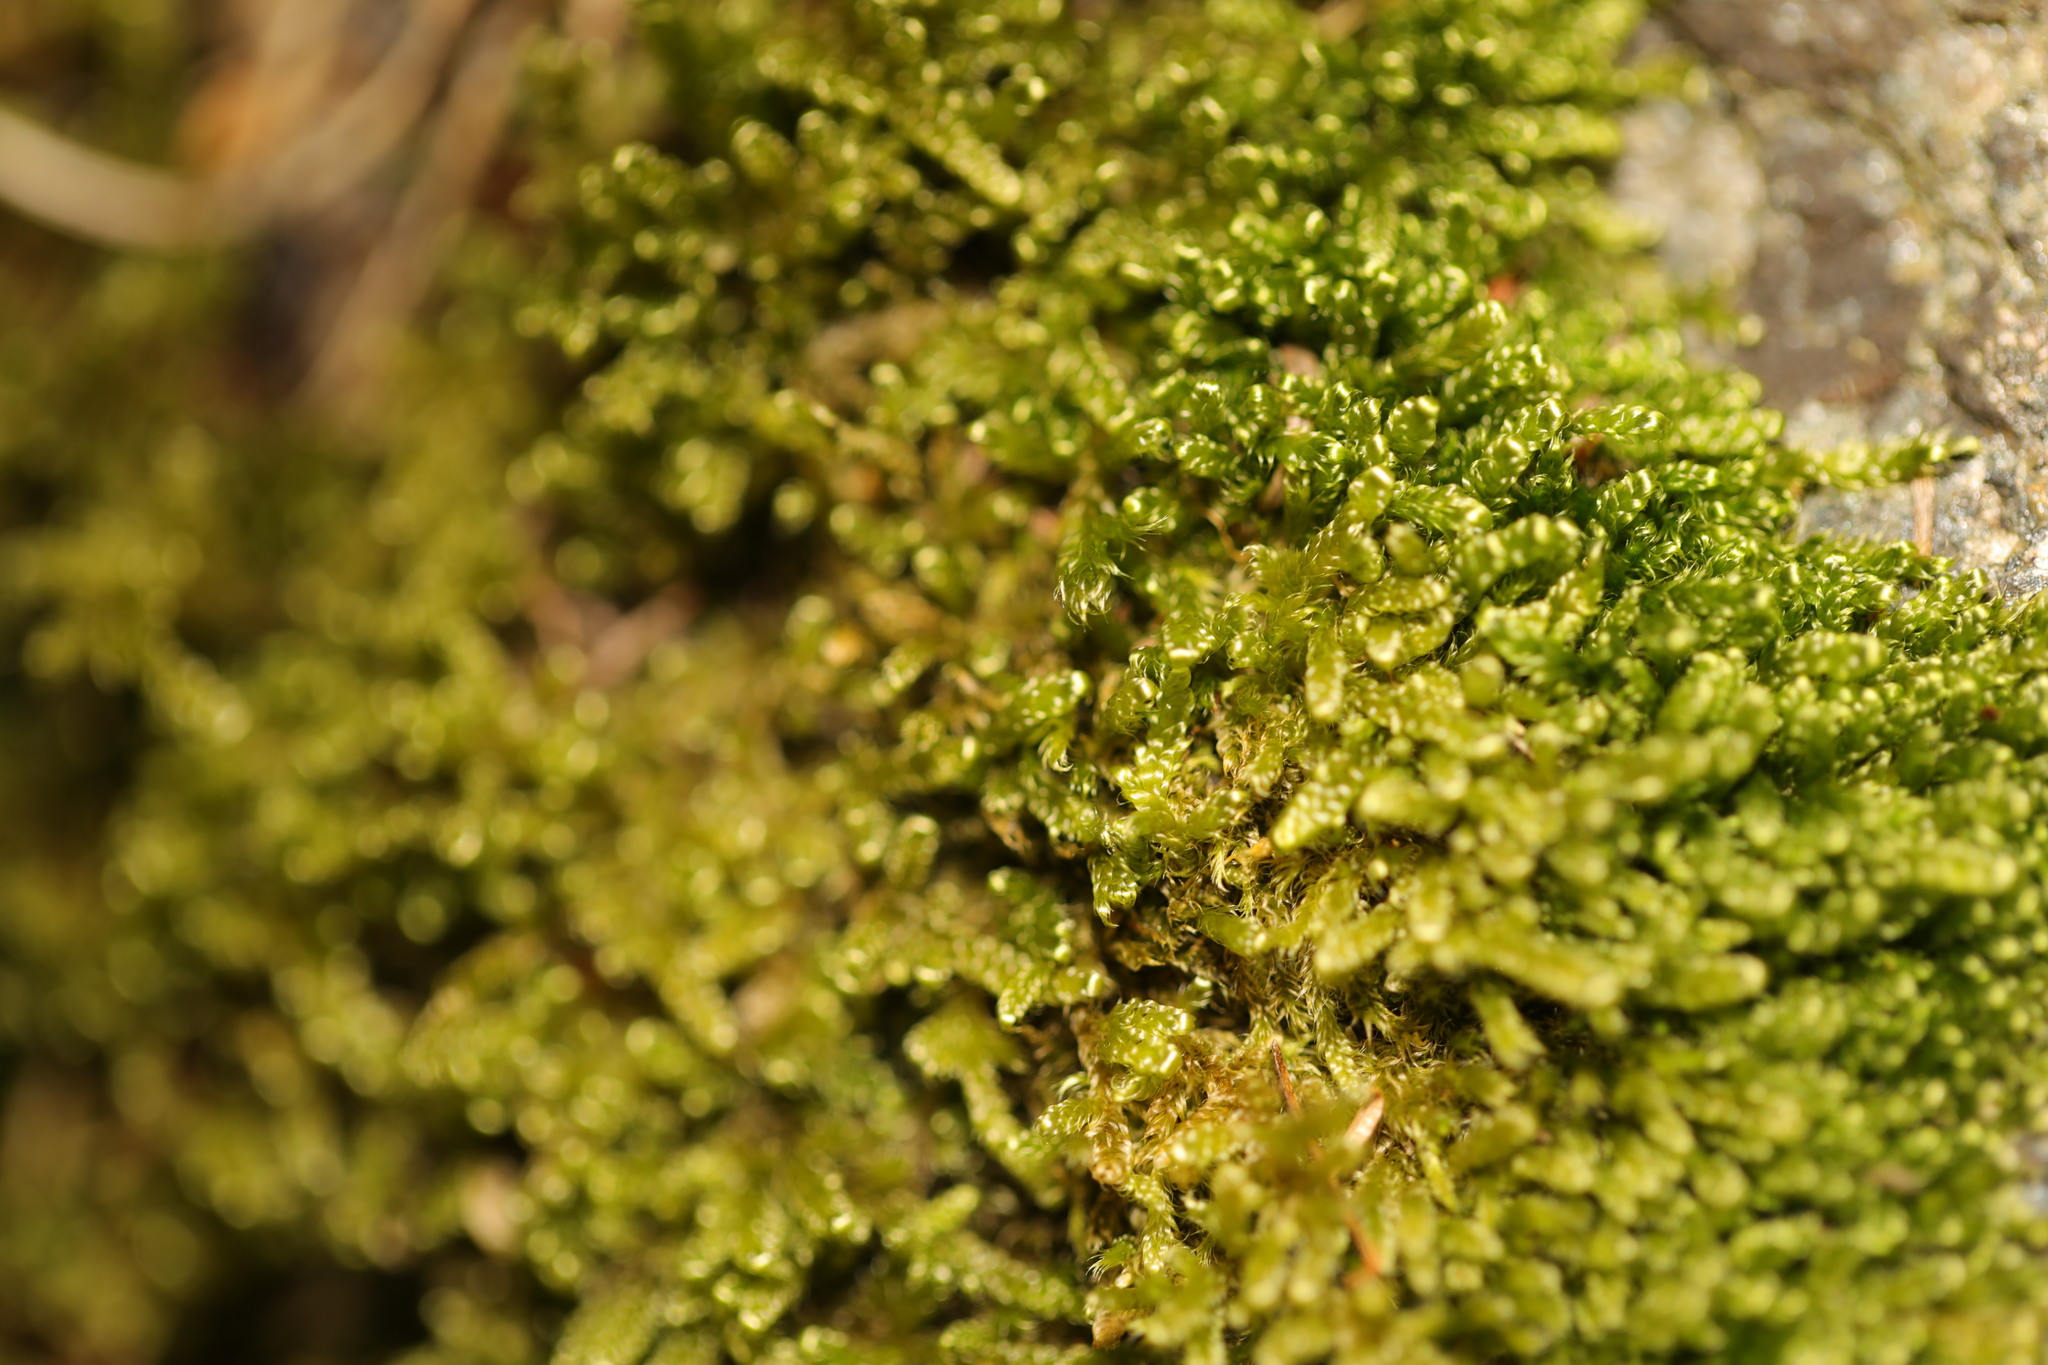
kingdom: Plantae
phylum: Bryophyta
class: Bryopsida
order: Hypnales
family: Hypnaceae
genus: Hypnum
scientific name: Hypnum cupressiforme
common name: Cypress-leaved plait-moss
